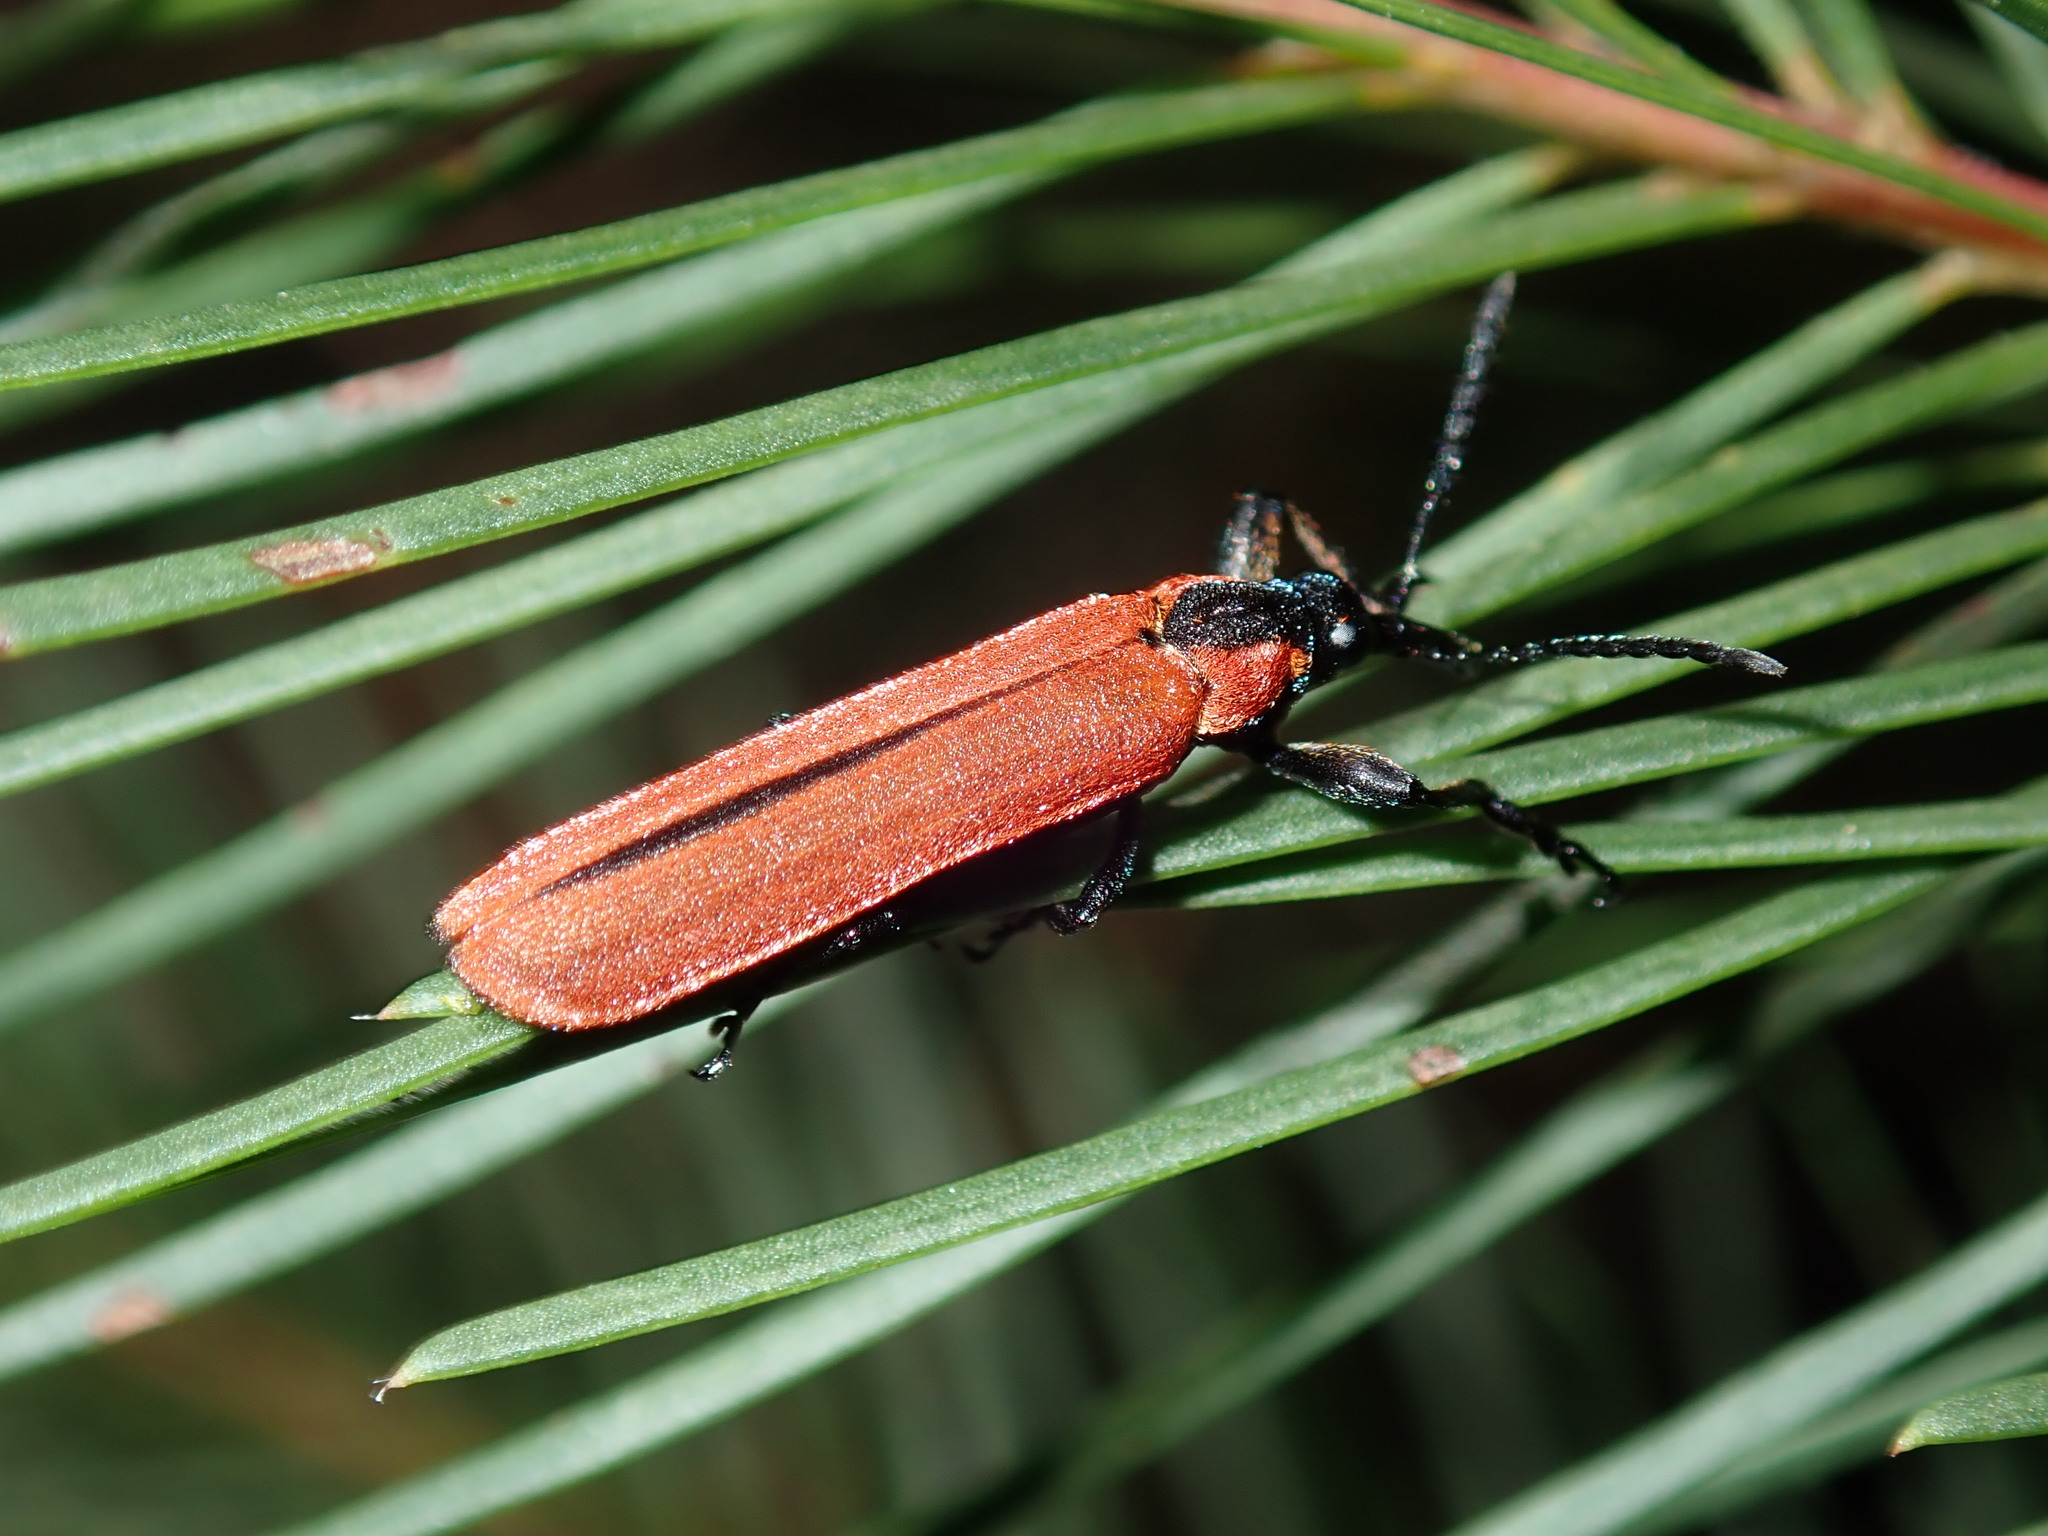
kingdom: Animalia
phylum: Arthropoda
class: Insecta
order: Coleoptera
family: Belidae
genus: Rhinotia
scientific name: Rhinotia haemoptera
